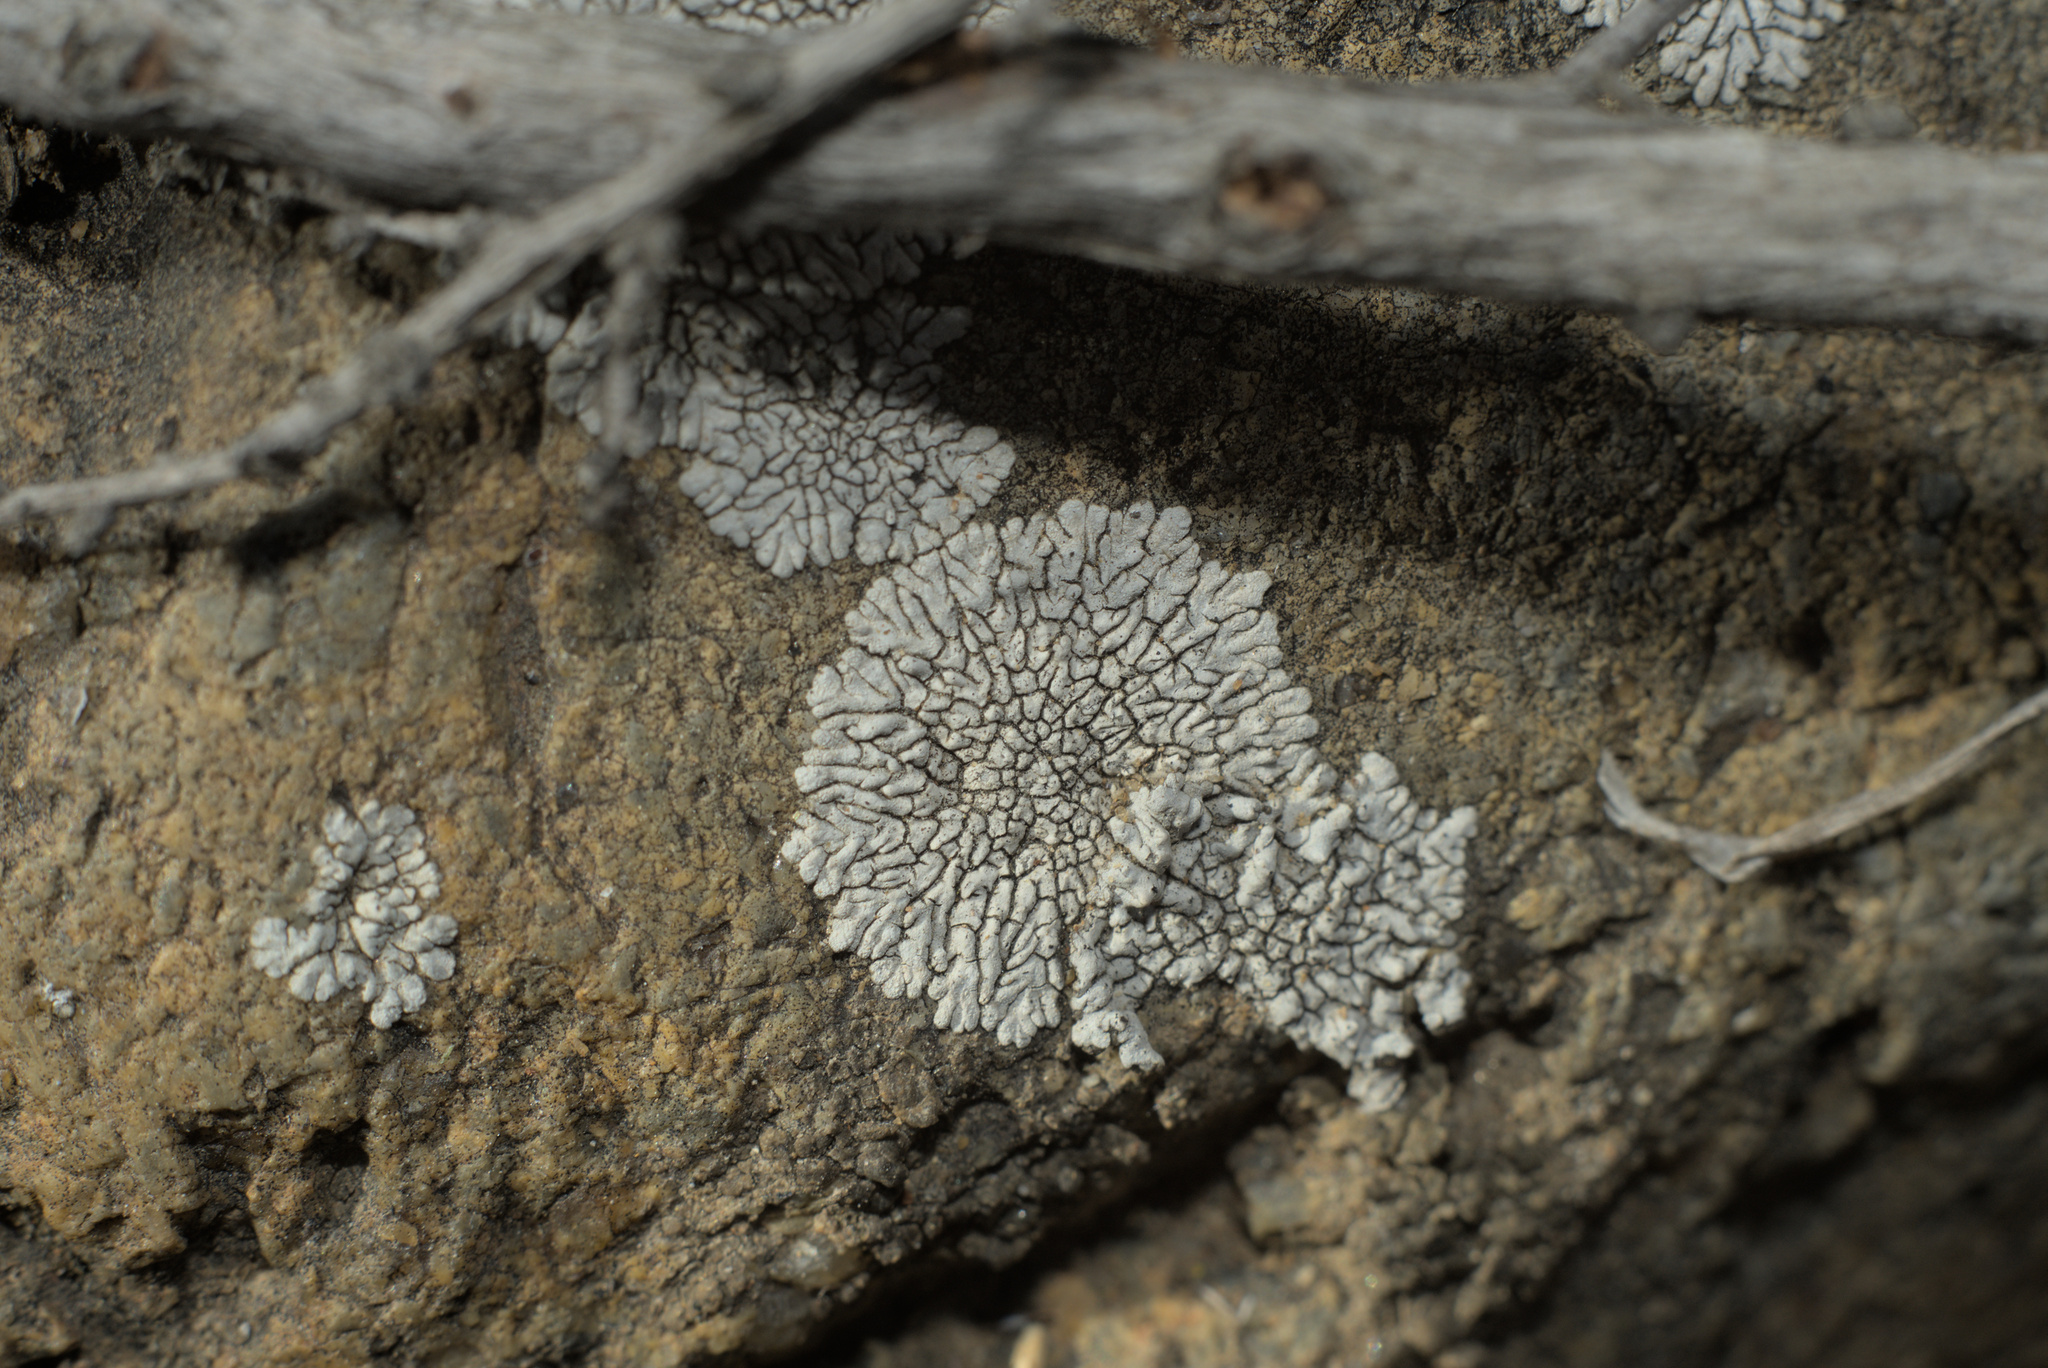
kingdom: Fungi
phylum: Ascomycota
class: Lecanoromycetes
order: Caliciales
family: Caliciaceae
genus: Dimelaena
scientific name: Dimelaena radiata
